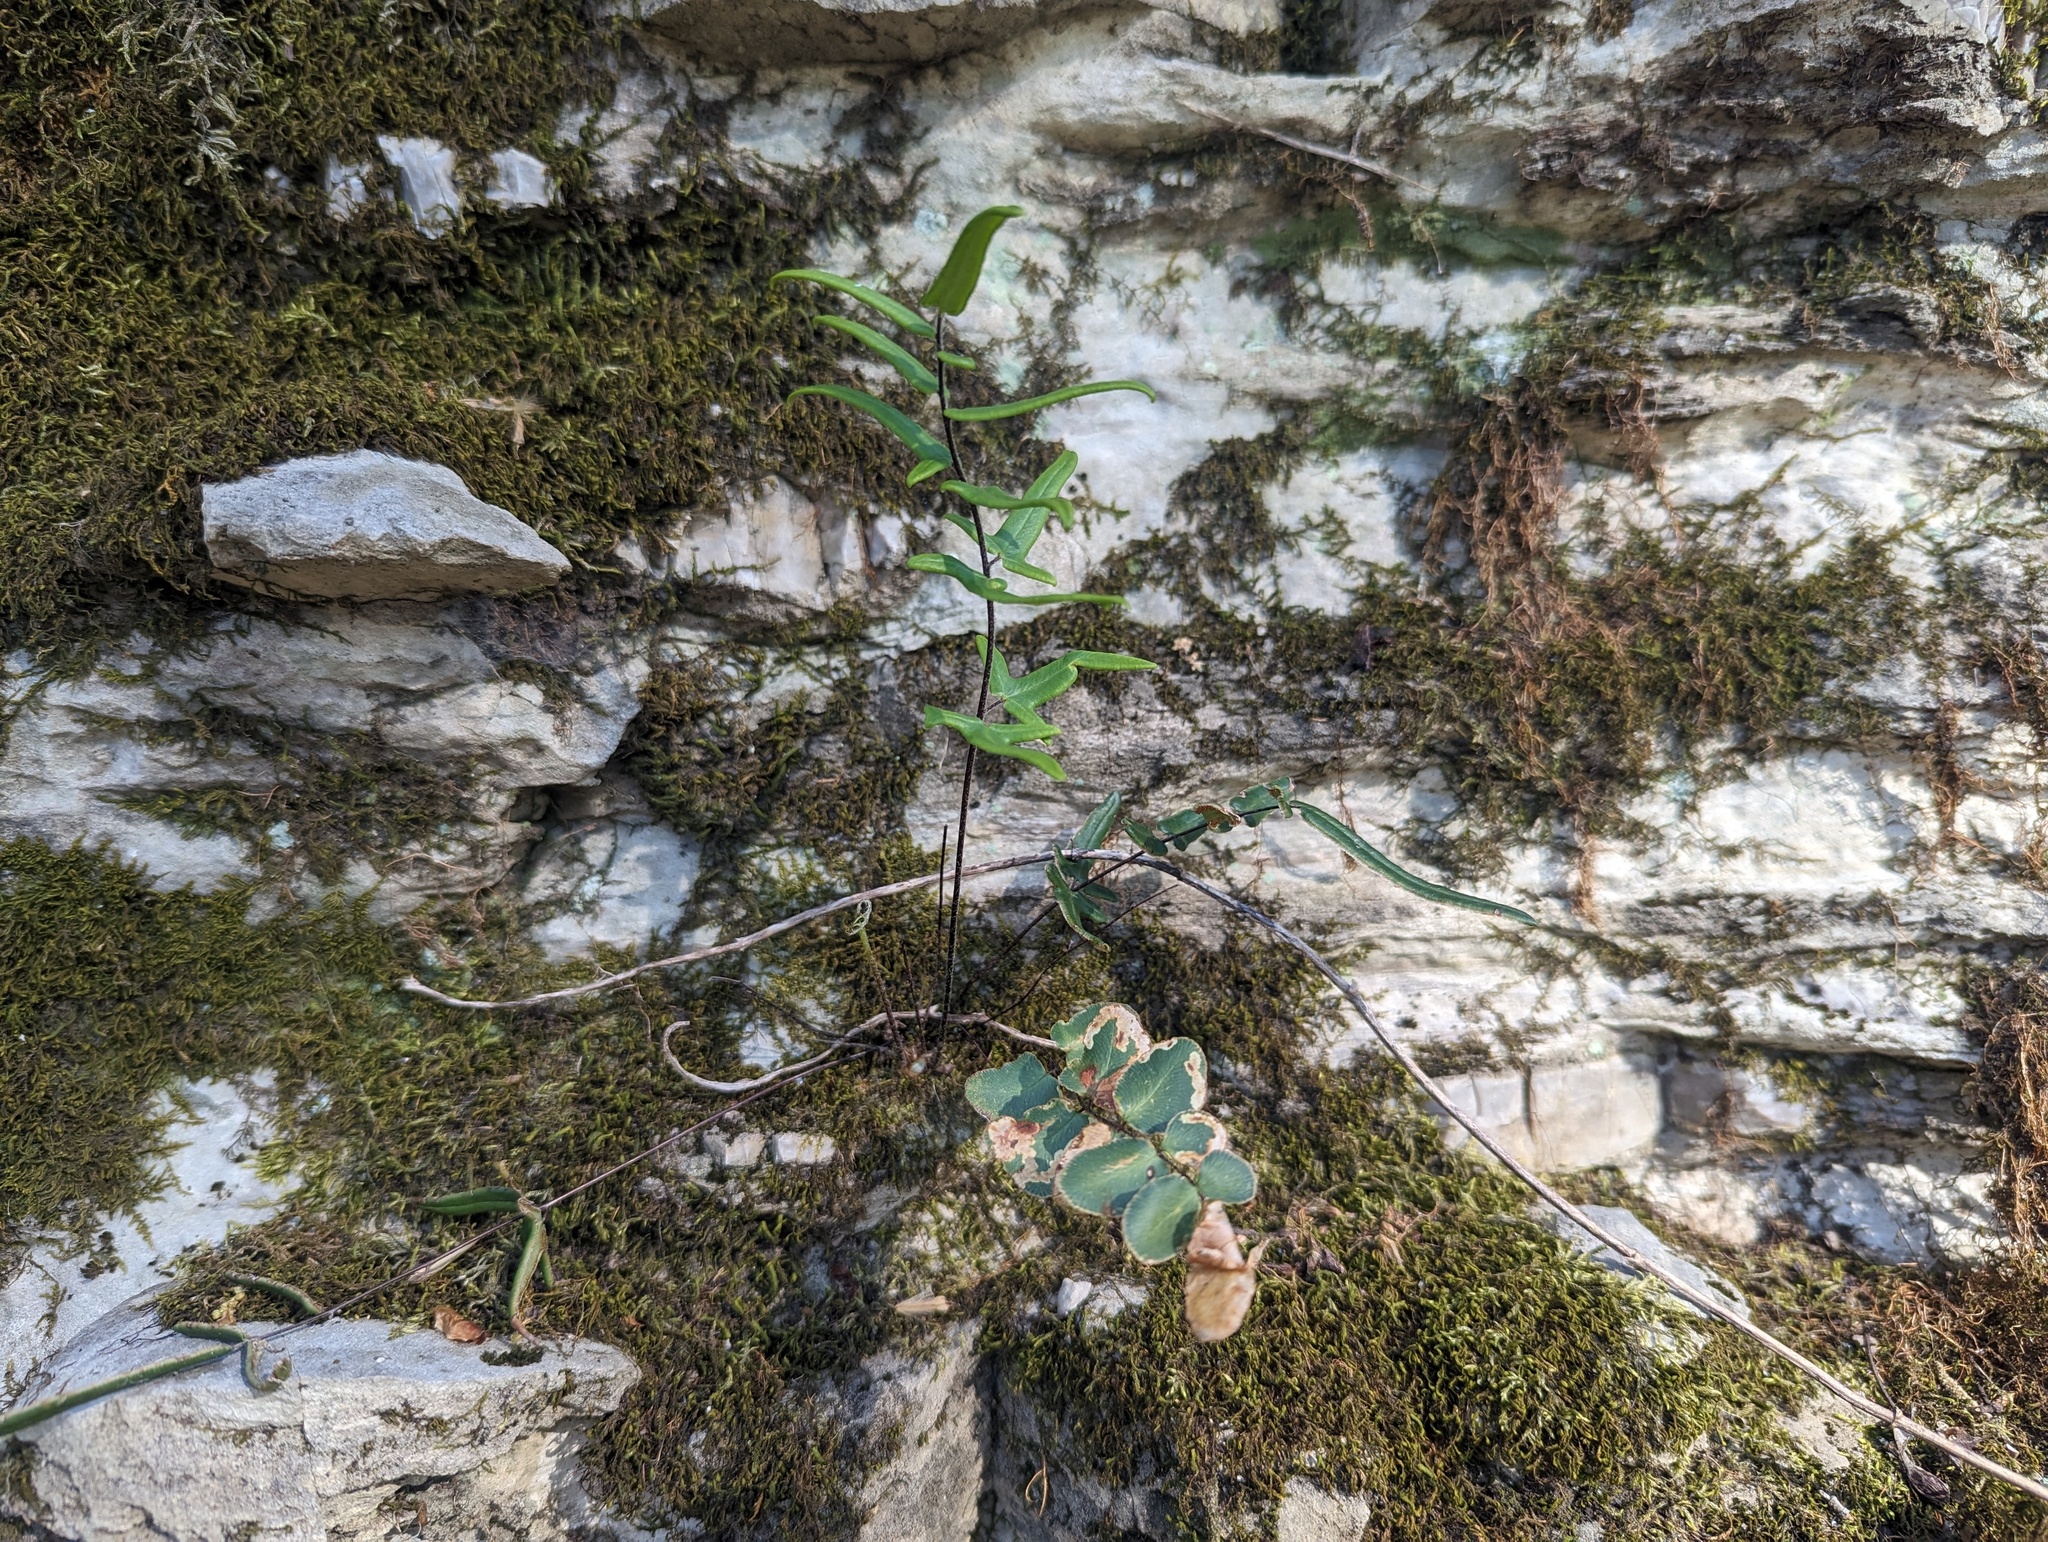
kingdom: Plantae
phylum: Tracheophyta
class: Polypodiopsida
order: Polypodiales
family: Pteridaceae
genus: Pellaea
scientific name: Pellaea atropurpurea
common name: Hairy cliffbrake
